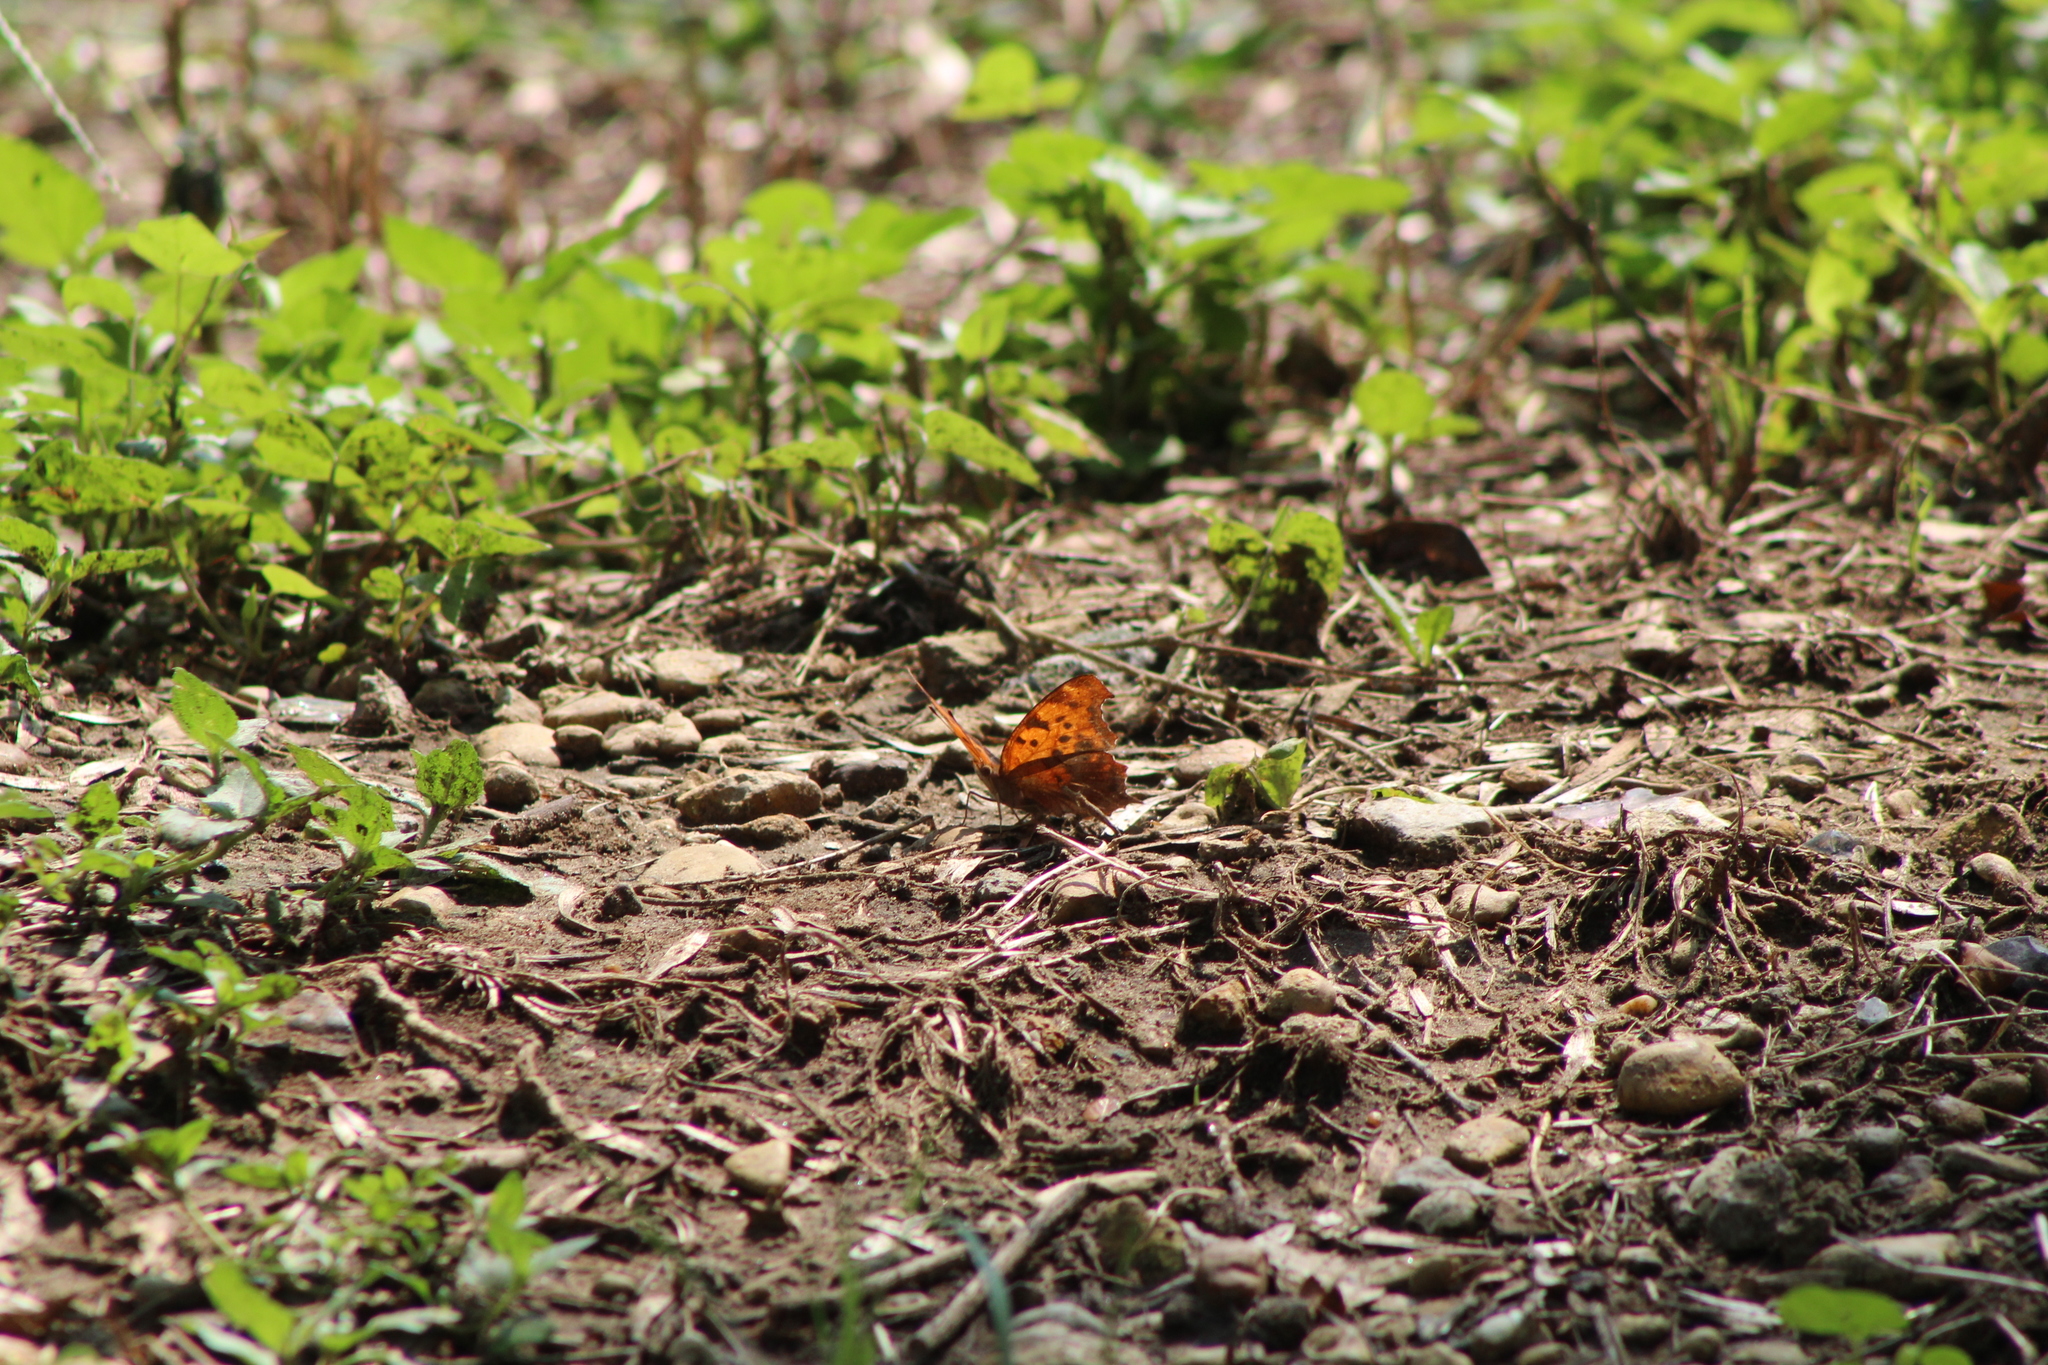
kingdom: Animalia
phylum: Arthropoda
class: Insecta
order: Lepidoptera
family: Nymphalidae
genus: Polygonia
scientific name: Polygonia interrogationis
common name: Question mark
